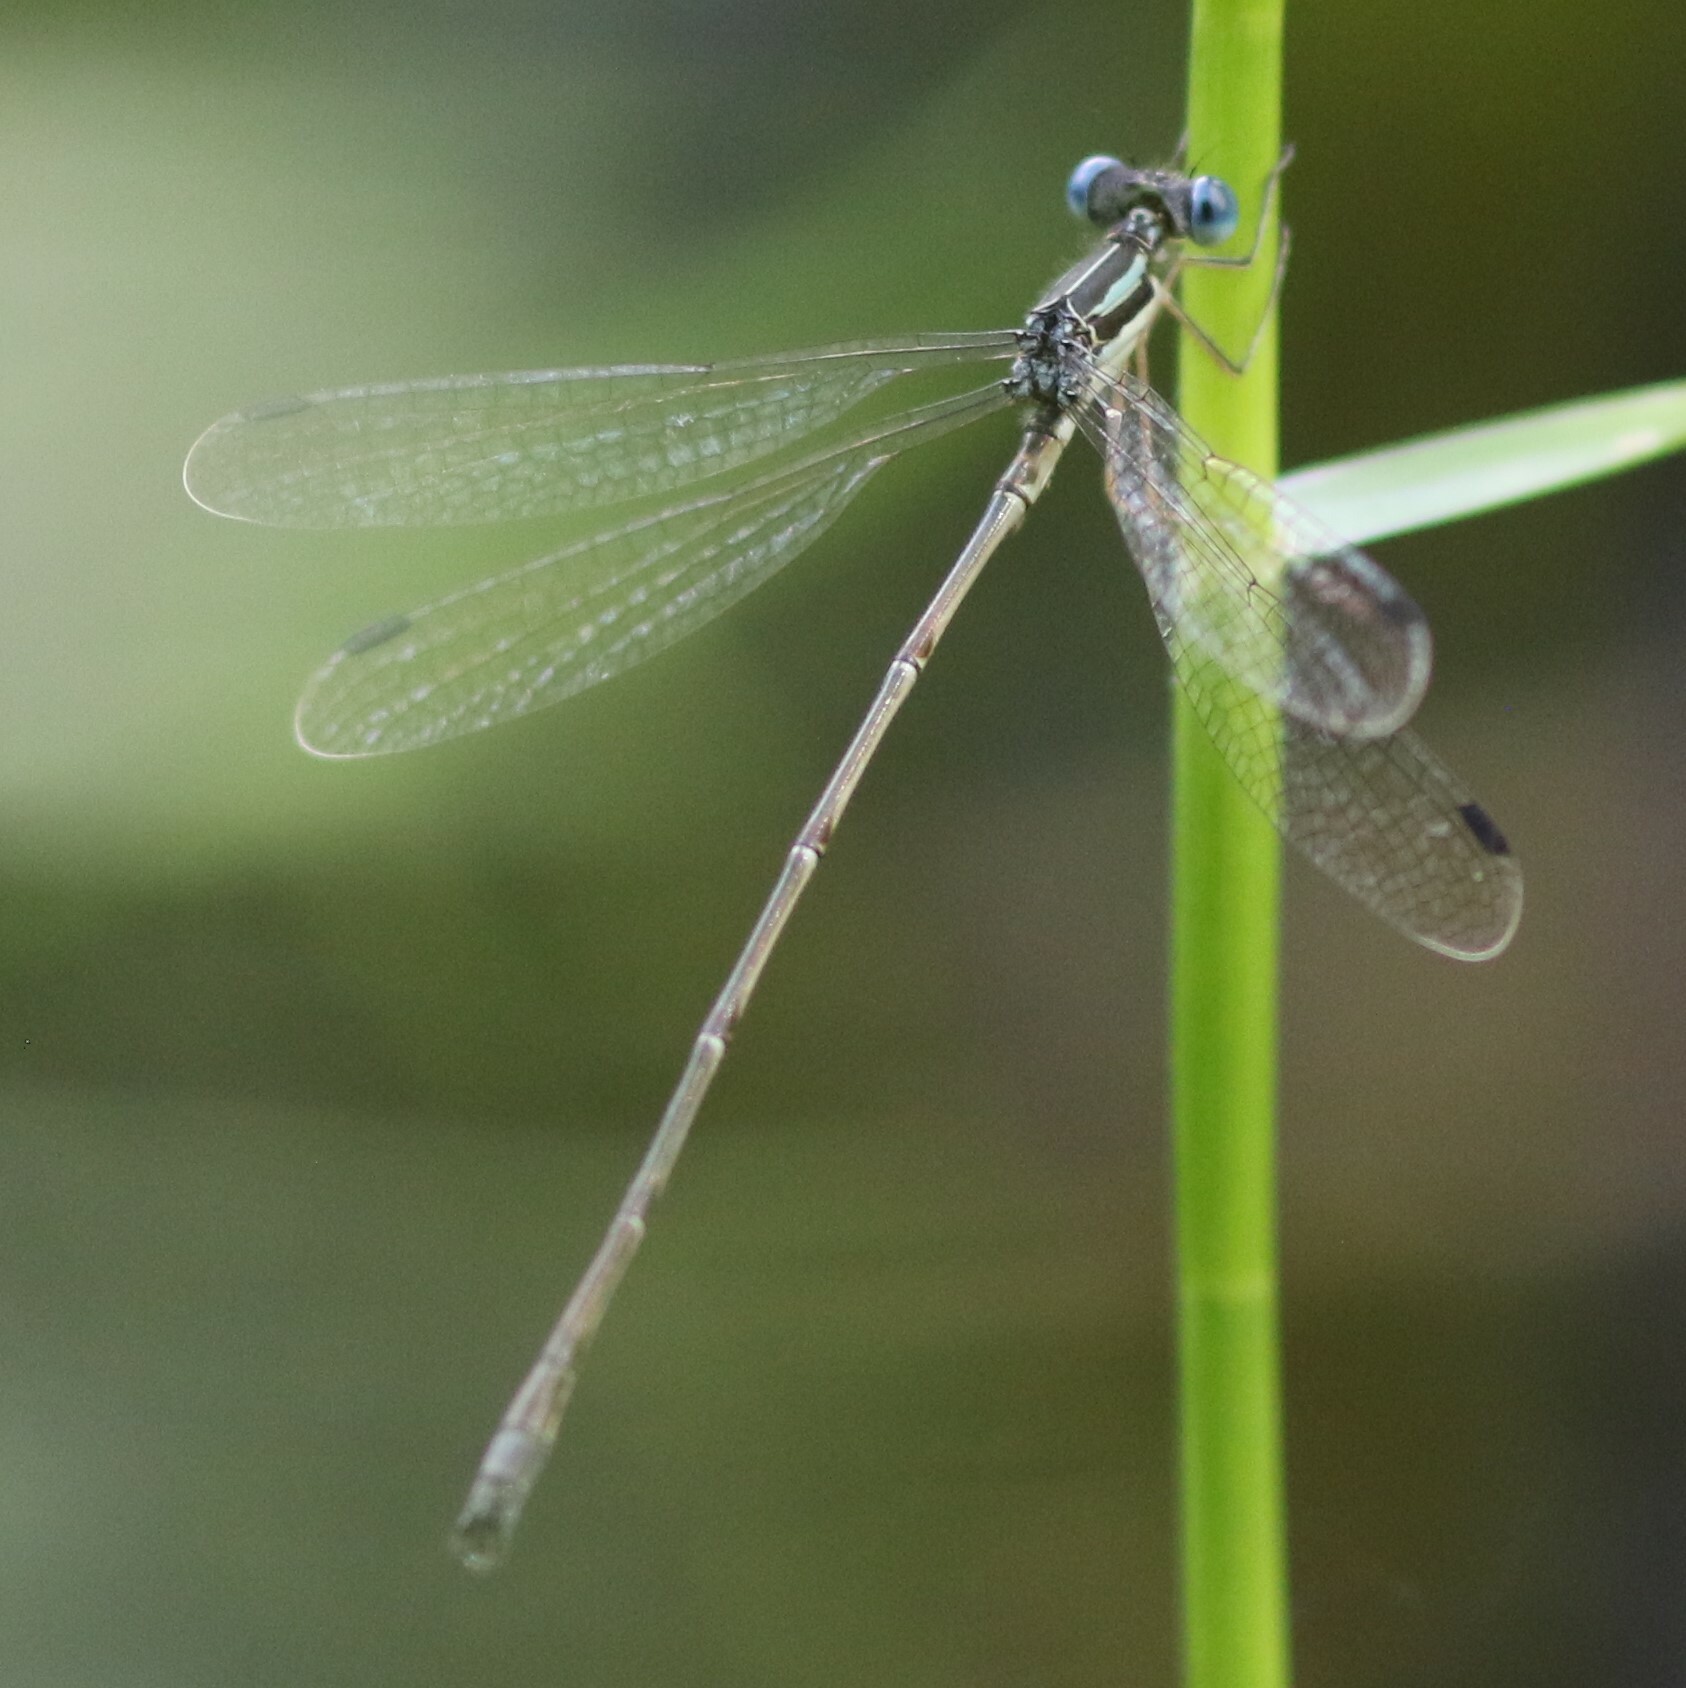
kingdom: Animalia
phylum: Arthropoda
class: Insecta
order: Odonata
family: Lestidae
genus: Lestes
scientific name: Lestes rectangularis
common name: Slender spreadwing
